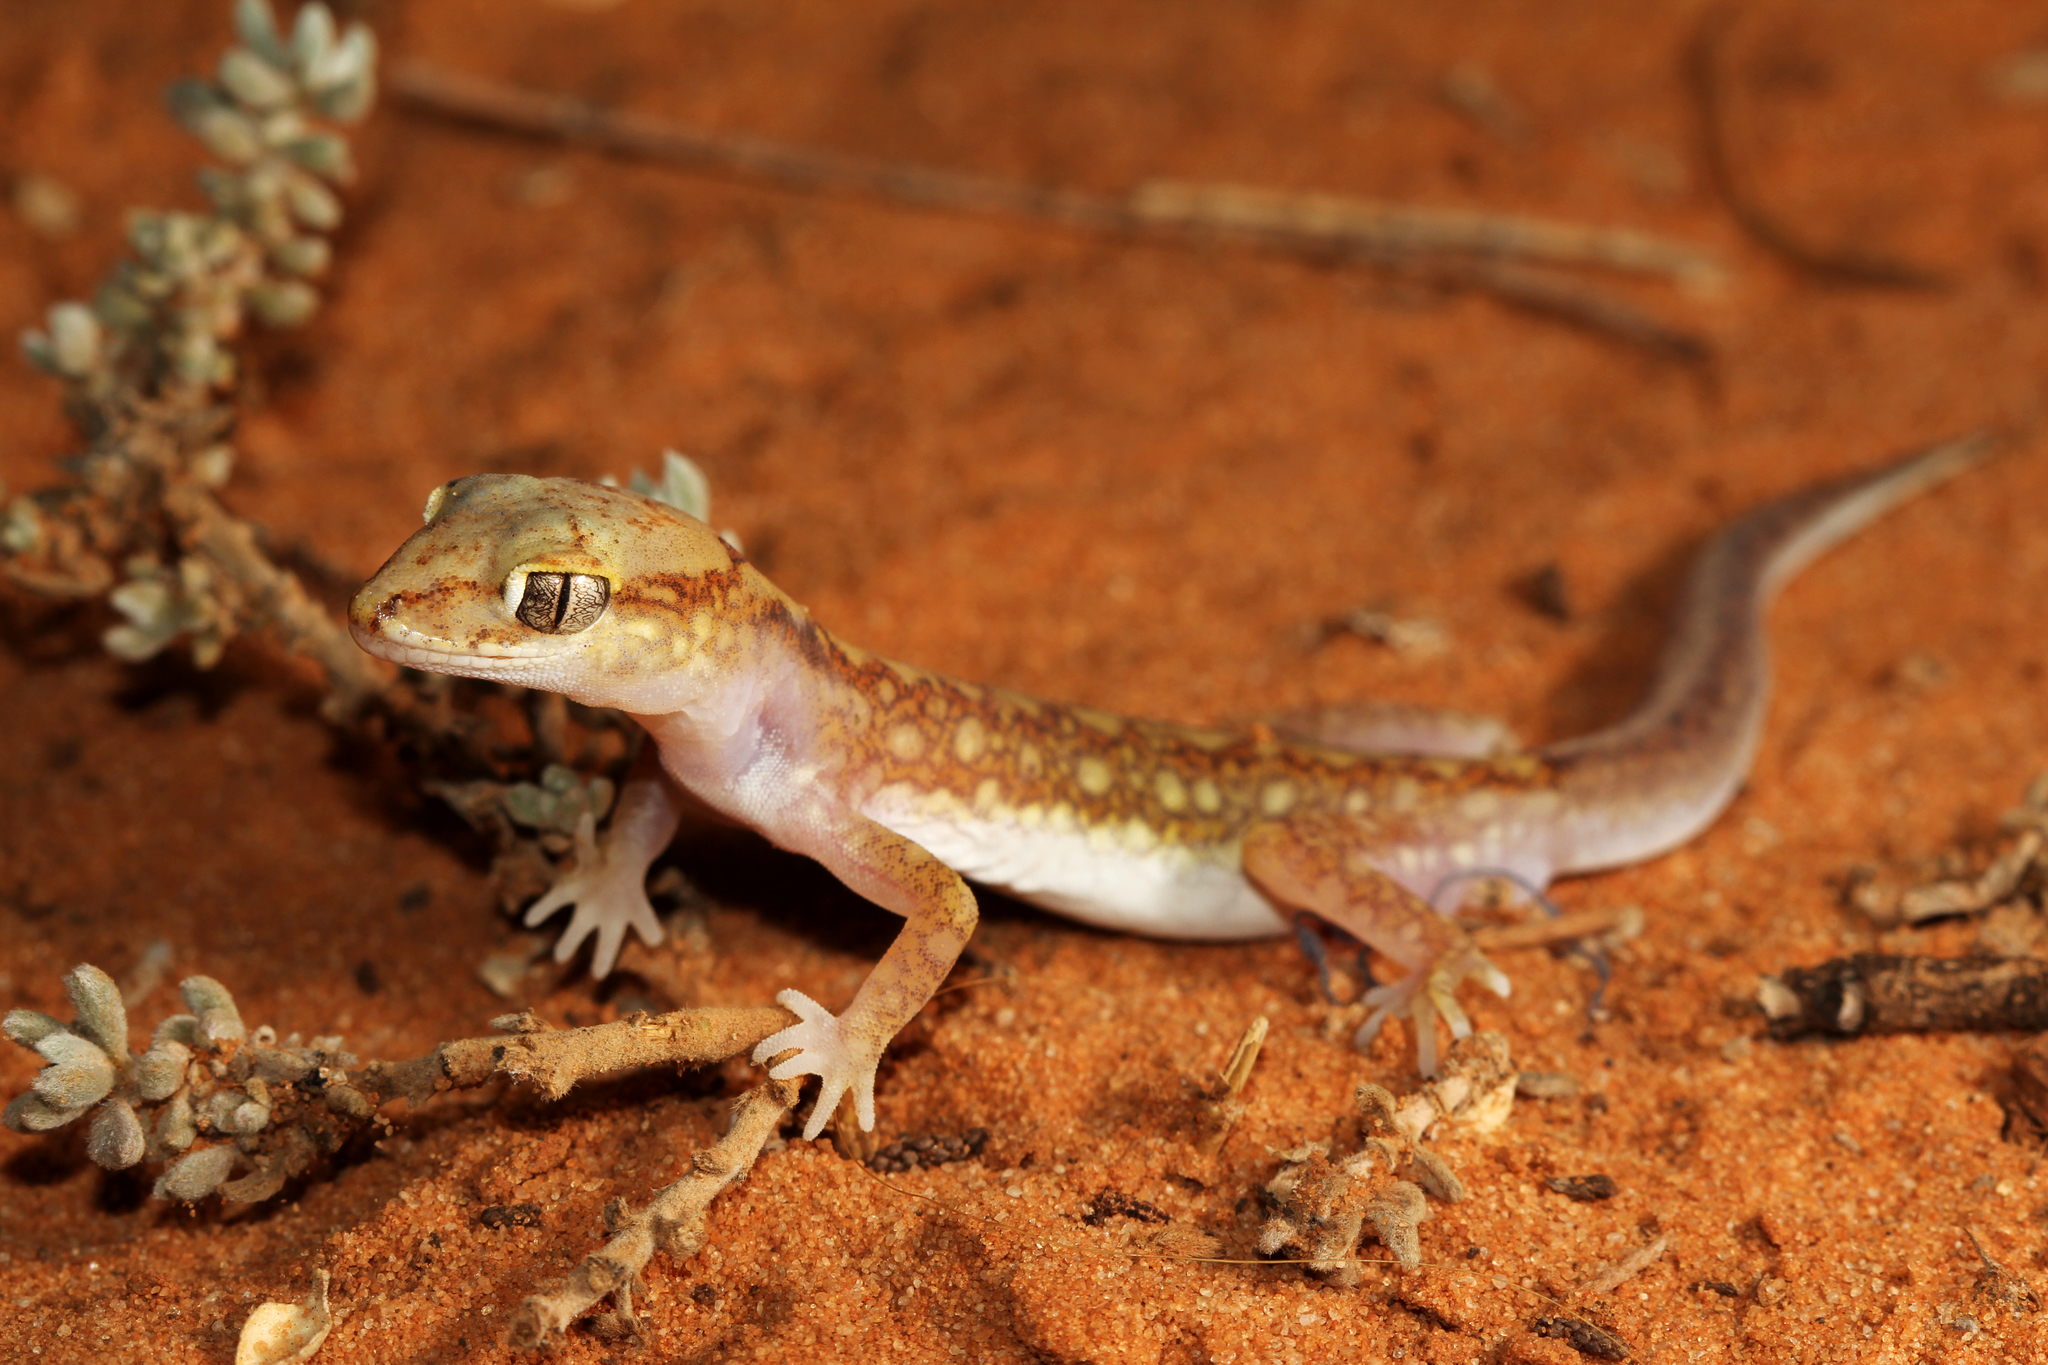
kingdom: Animalia
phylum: Chordata
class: Squamata
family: Diplodactylidae
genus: Lucasium
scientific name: Lucasium damaeum
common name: Beaded gecko
